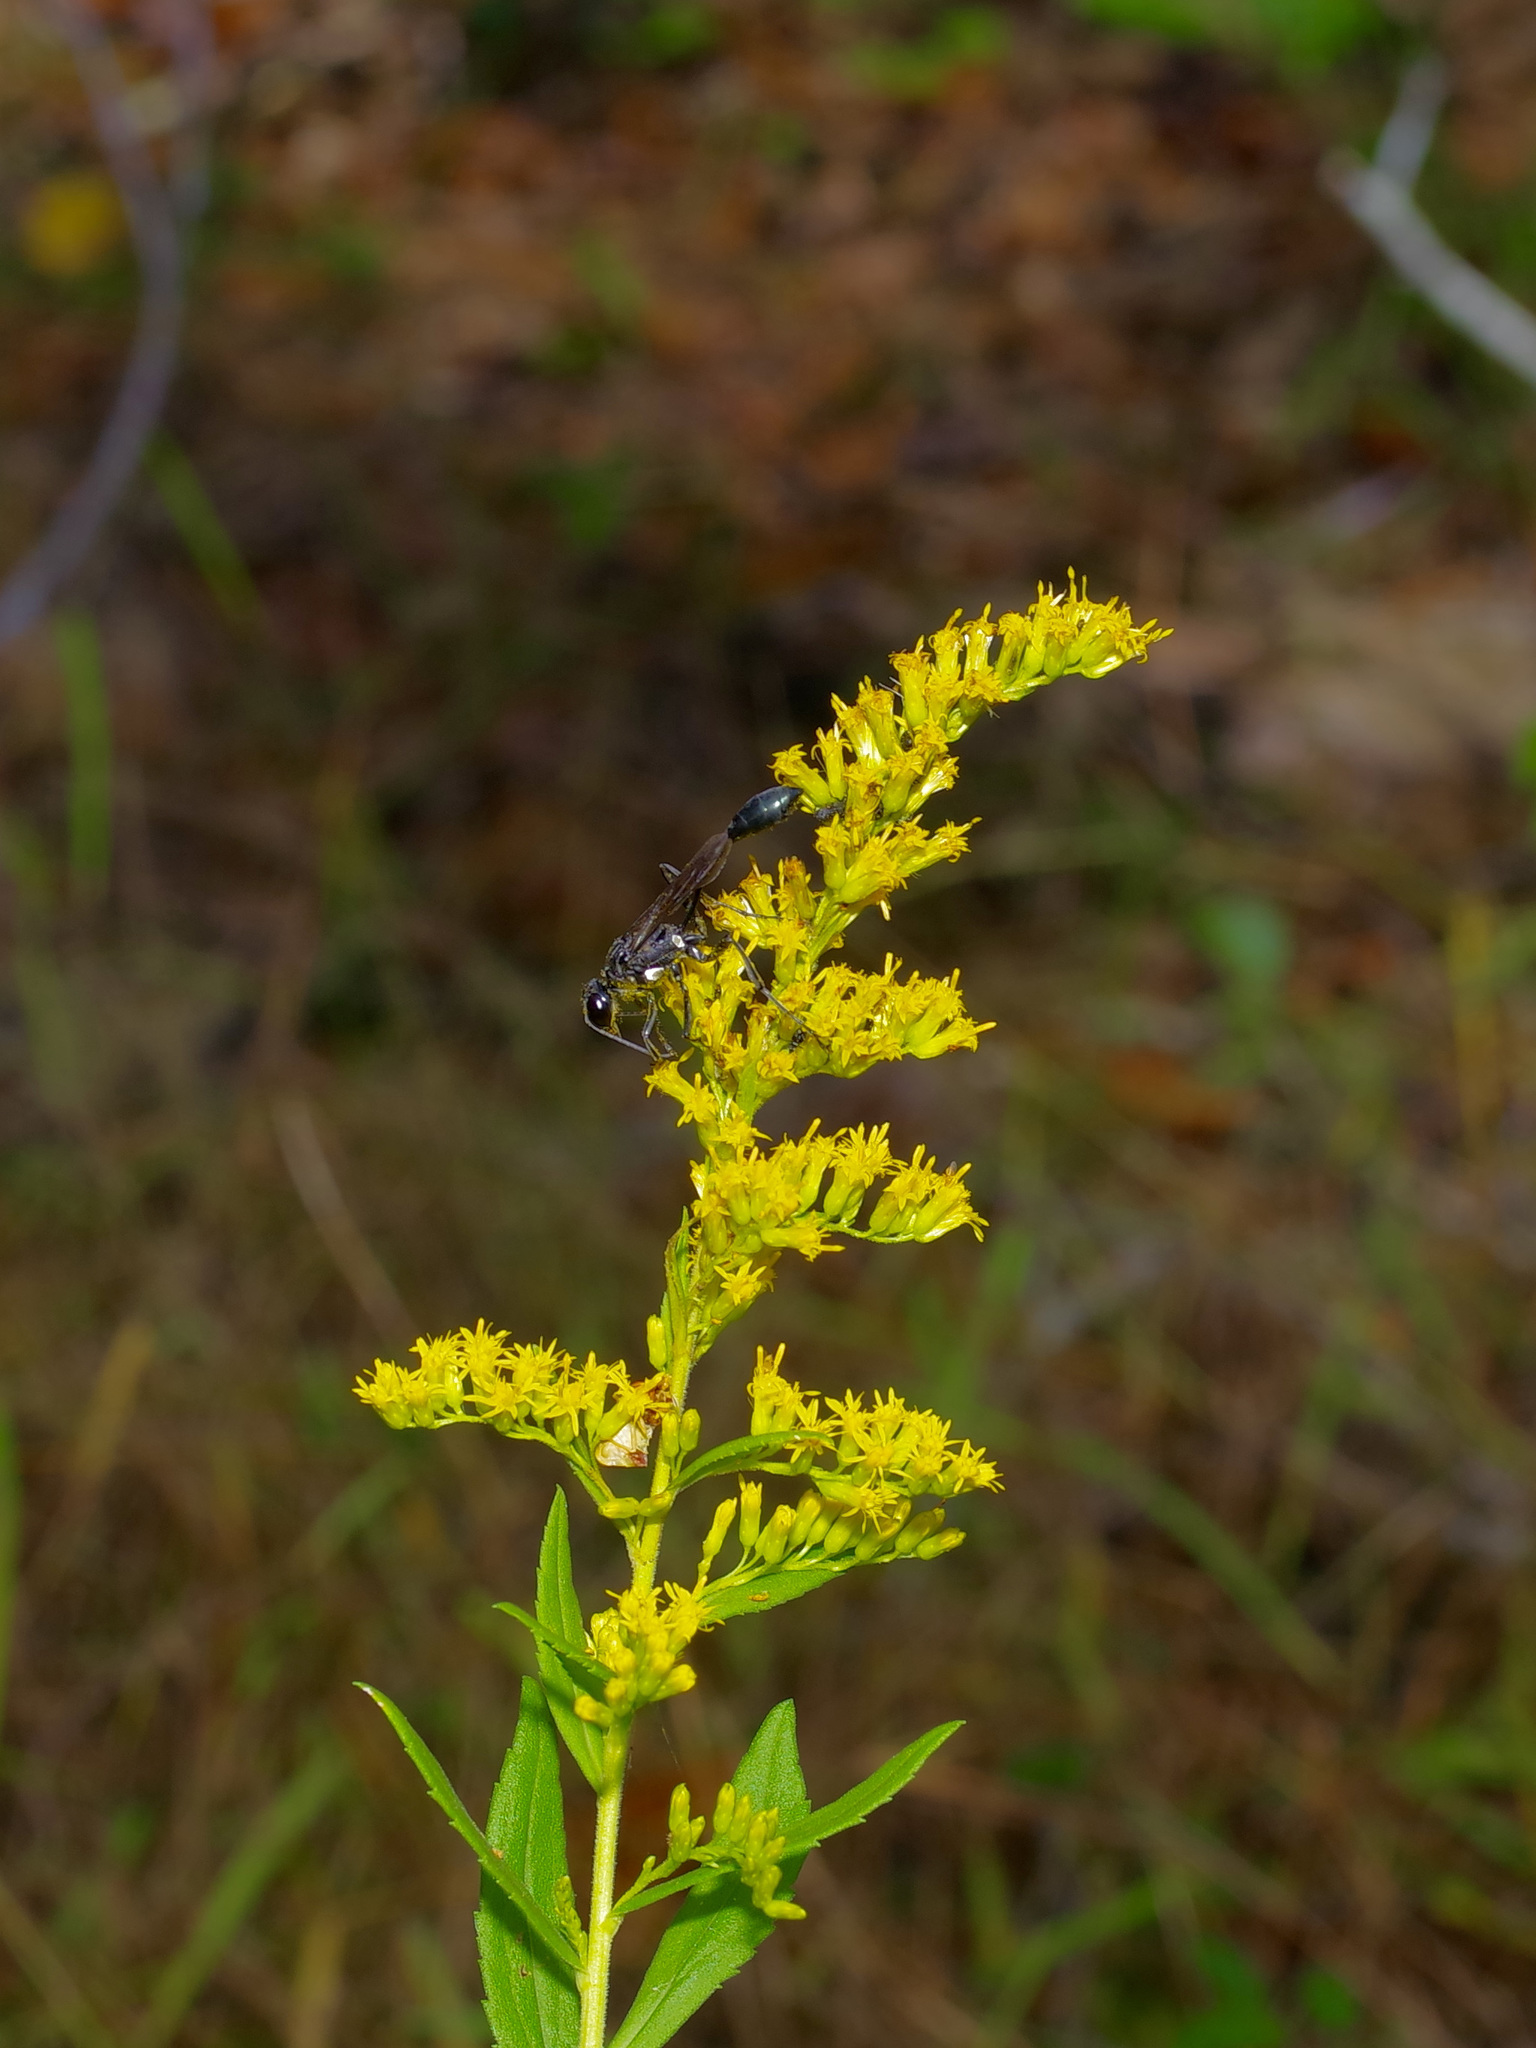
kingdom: Animalia
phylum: Arthropoda
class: Insecta
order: Hymenoptera
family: Sphecidae
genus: Eremnophila
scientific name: Eremnophila aureonotata
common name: Gold-marked thread-waisted wasp
